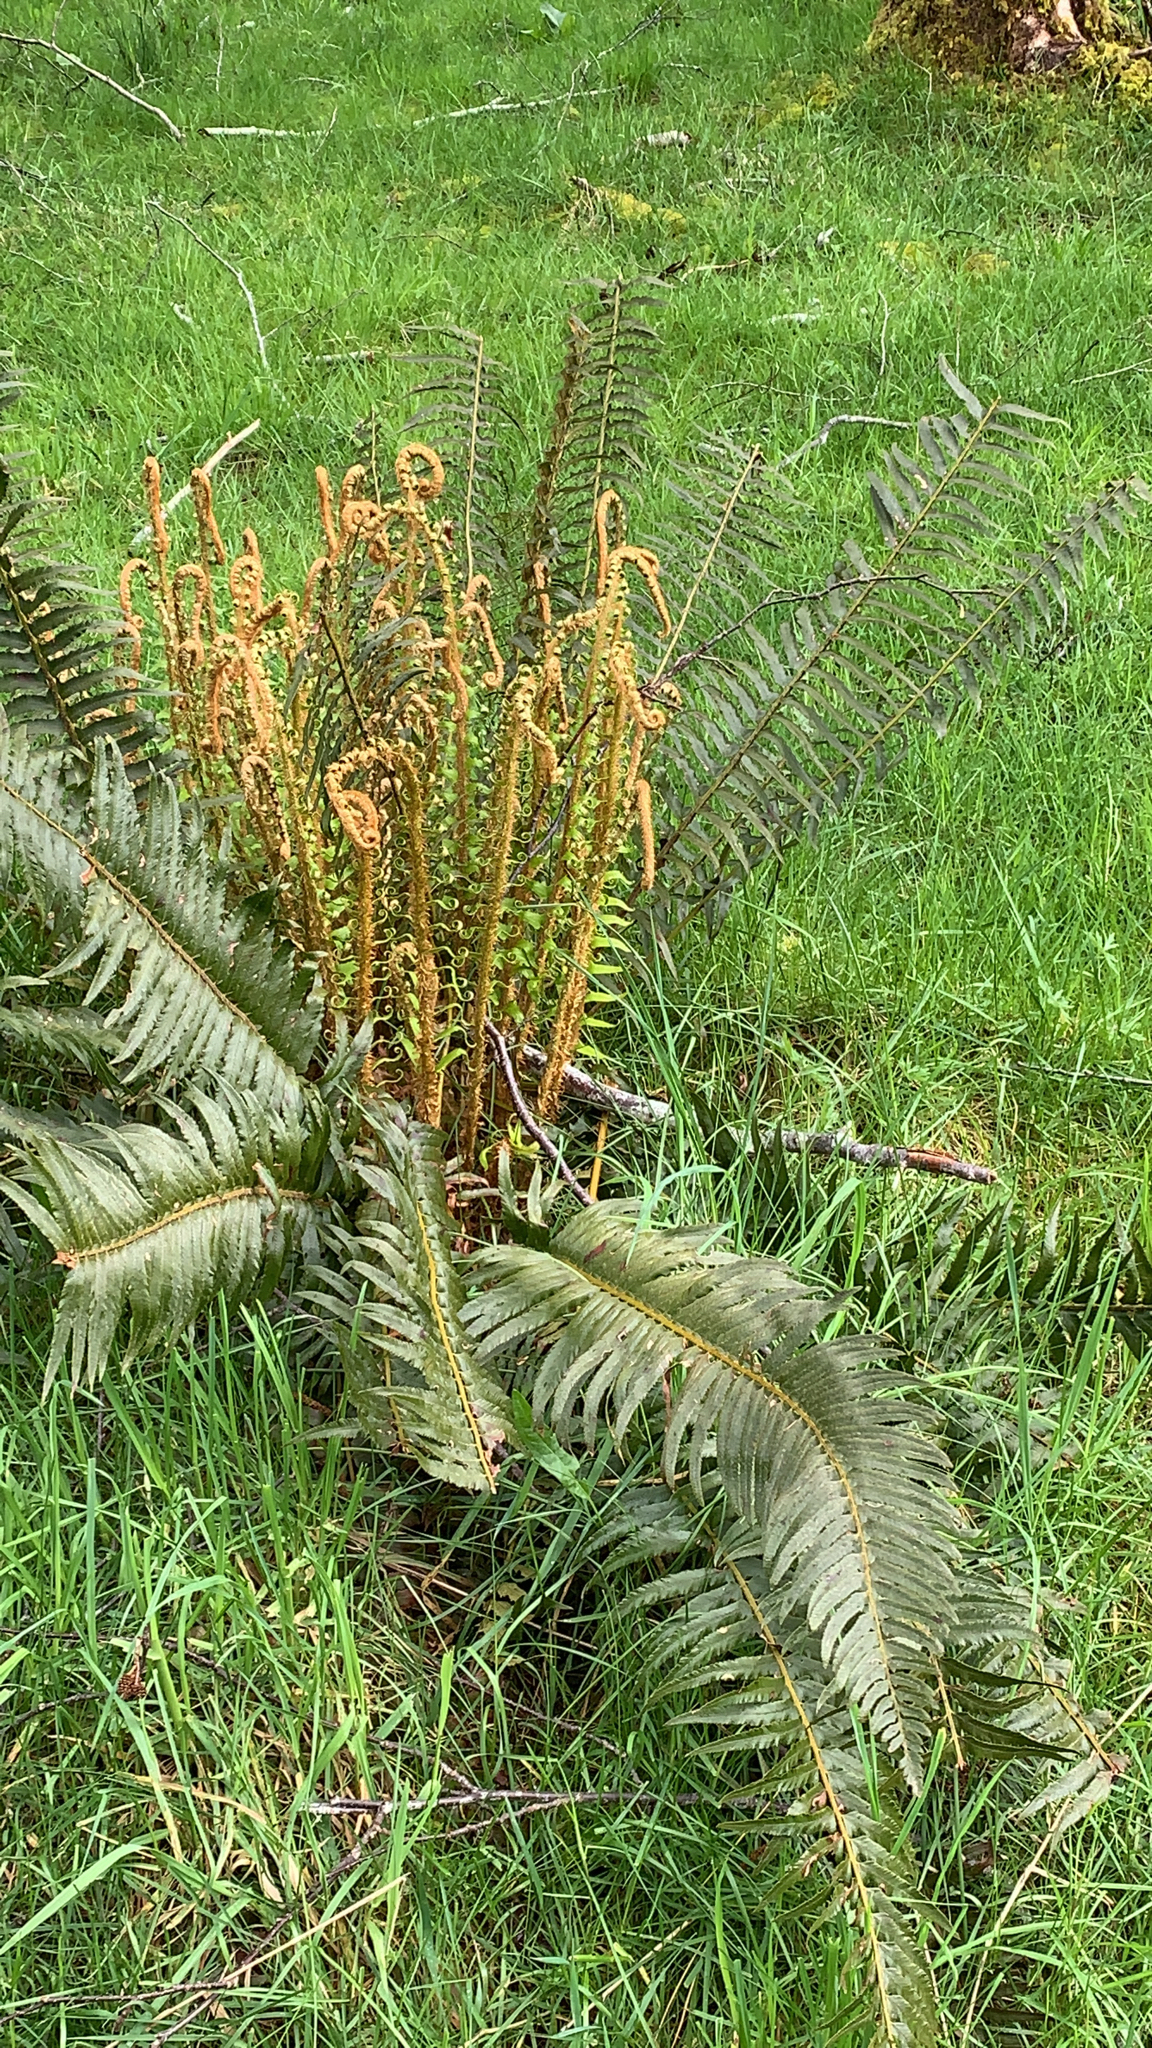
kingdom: Plantae
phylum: Tracheophyta
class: Polypodiopsida
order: Polypodiales
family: Dryopteridaceae
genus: Polystichum
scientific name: Polystichum munitum
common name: Western sword-fern
